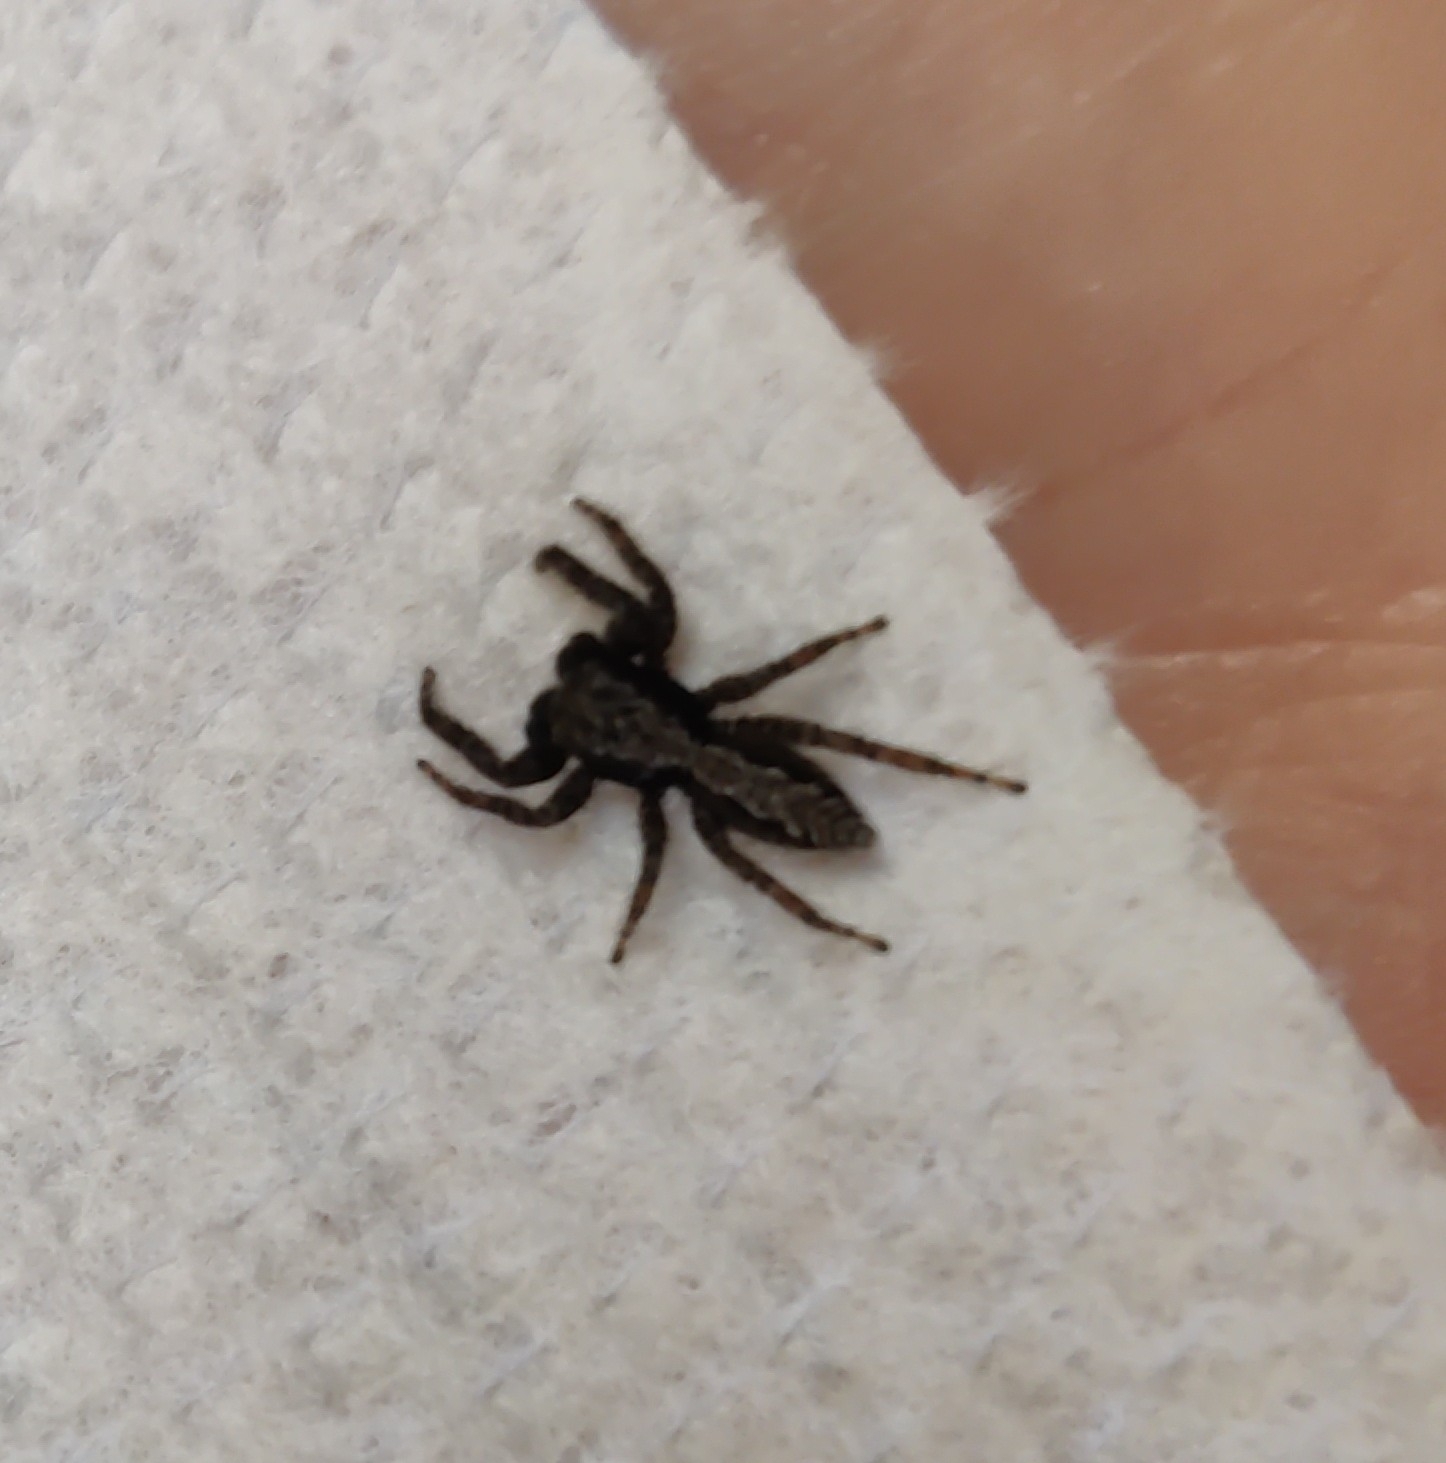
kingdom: Animalia
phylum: Arthropoda
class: Arachnida
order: Araneae
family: Salticidae
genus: Platycryptus
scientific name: Platycryptus californicus
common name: Jumping spiders
